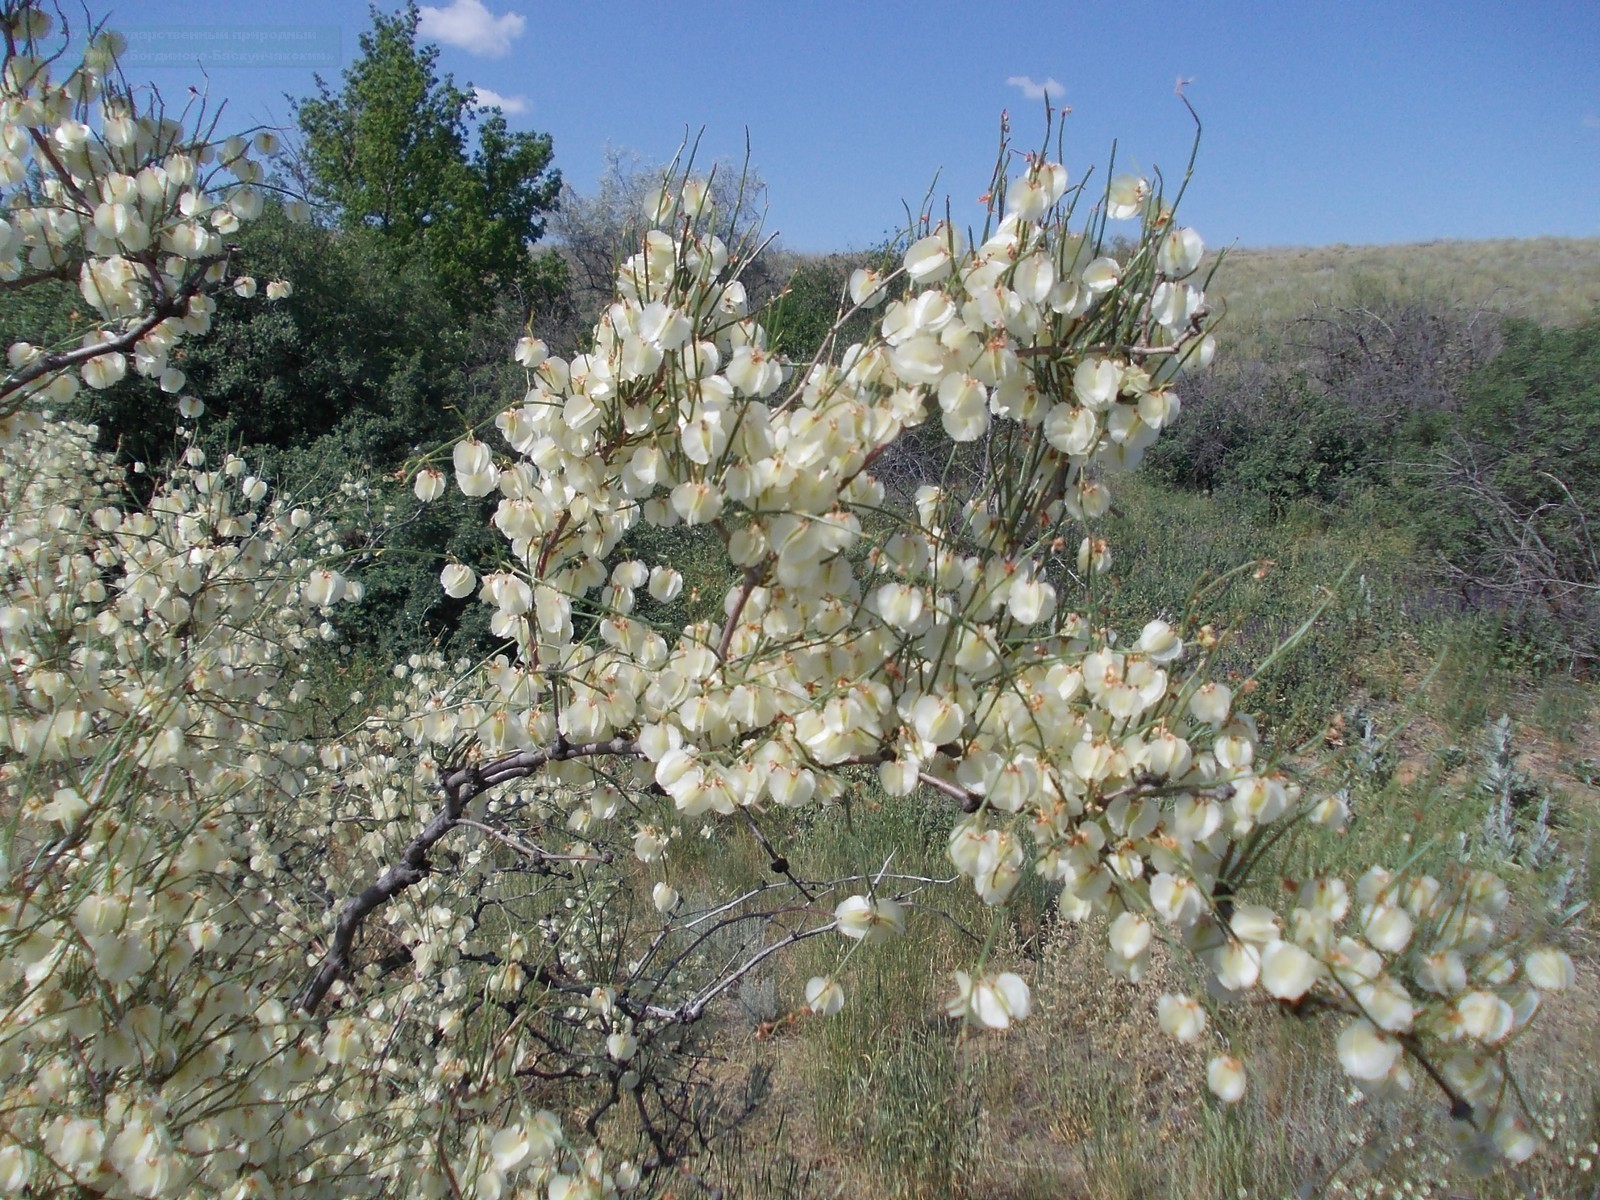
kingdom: Plantae
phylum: Tracheophyta
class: Magnoliopsida
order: Caryophyllales
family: Polygonaceae
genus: Calligonum
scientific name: Calligonum aphyllum
